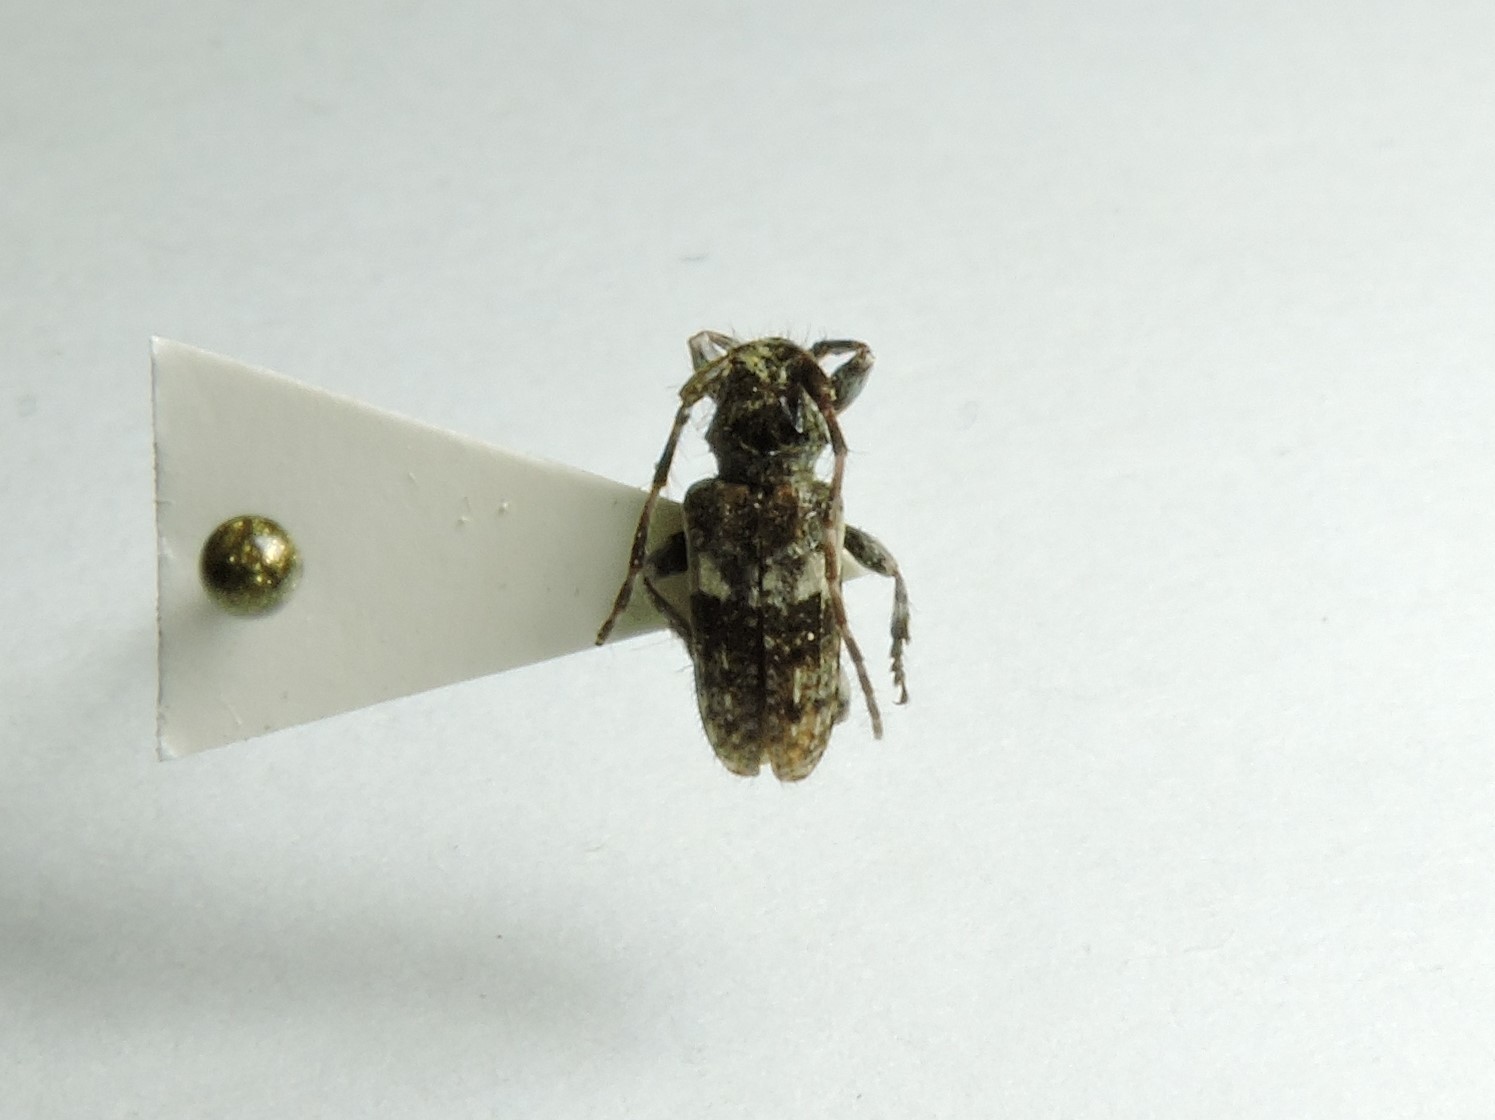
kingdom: Animalia
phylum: Arthropoda
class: Insecta
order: Coleoptera
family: Cerambycidae
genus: Pogonocherus
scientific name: Pogonocherus fasciculatus
